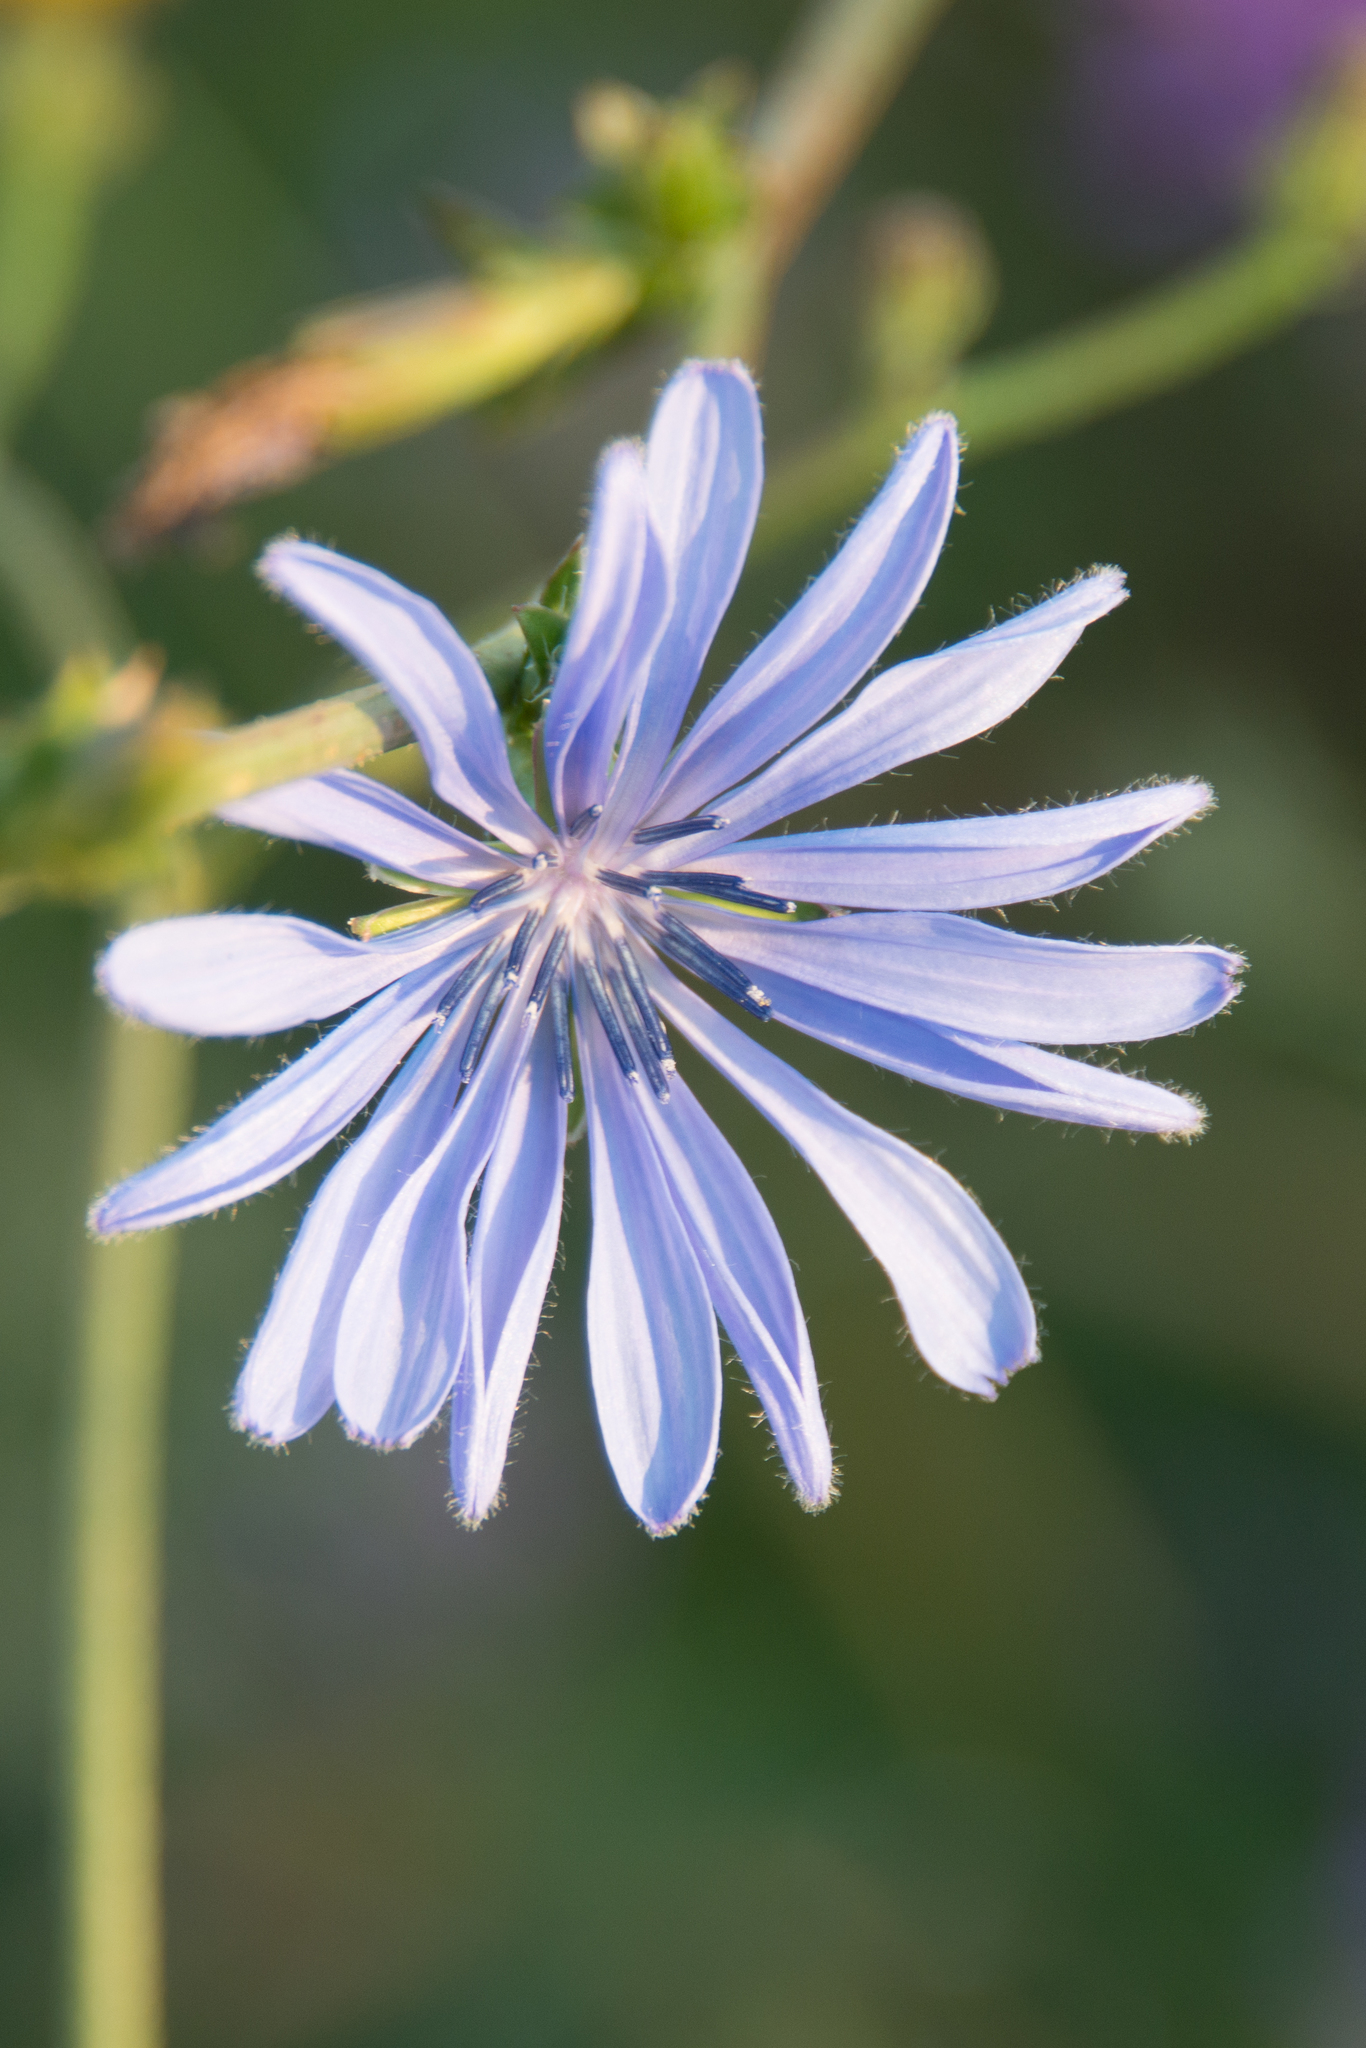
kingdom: Plantae
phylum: Tracheophyta
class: Magnoliopsida
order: Asterales
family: Asteraceae
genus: Cichorium
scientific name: Cichorium intybus
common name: Chicory
